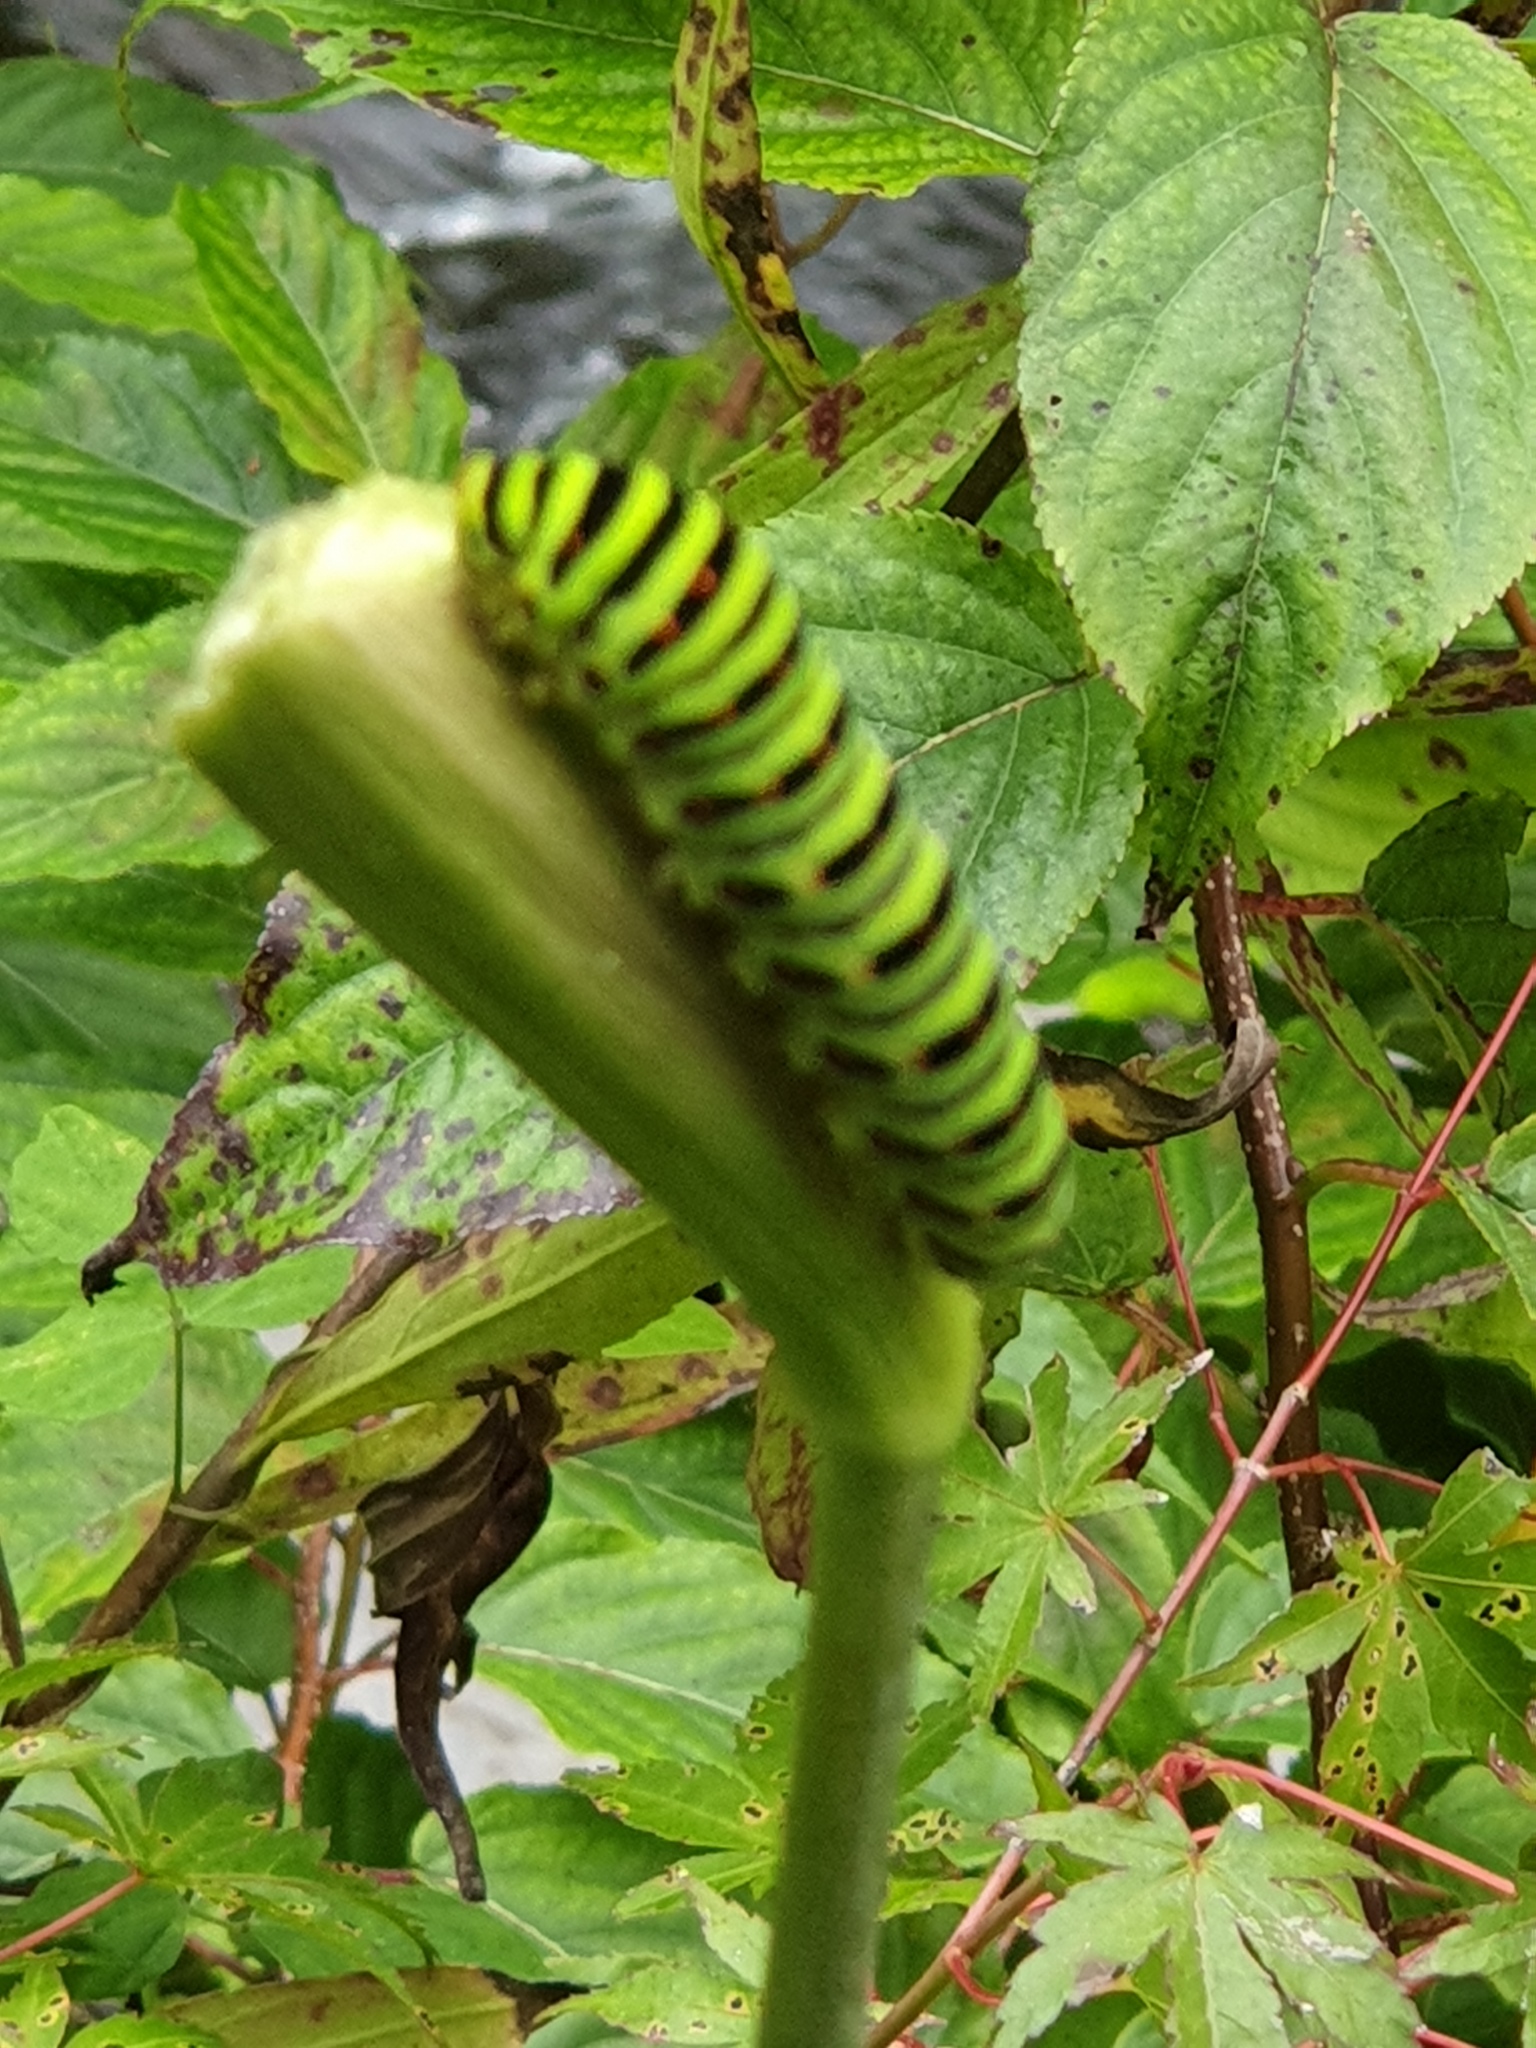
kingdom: Animalia
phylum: Arthropoda
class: Insecta
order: Lepidoptera
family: Papilionidae
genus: Papilio
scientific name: Papilio machaon
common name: Swallowtail
